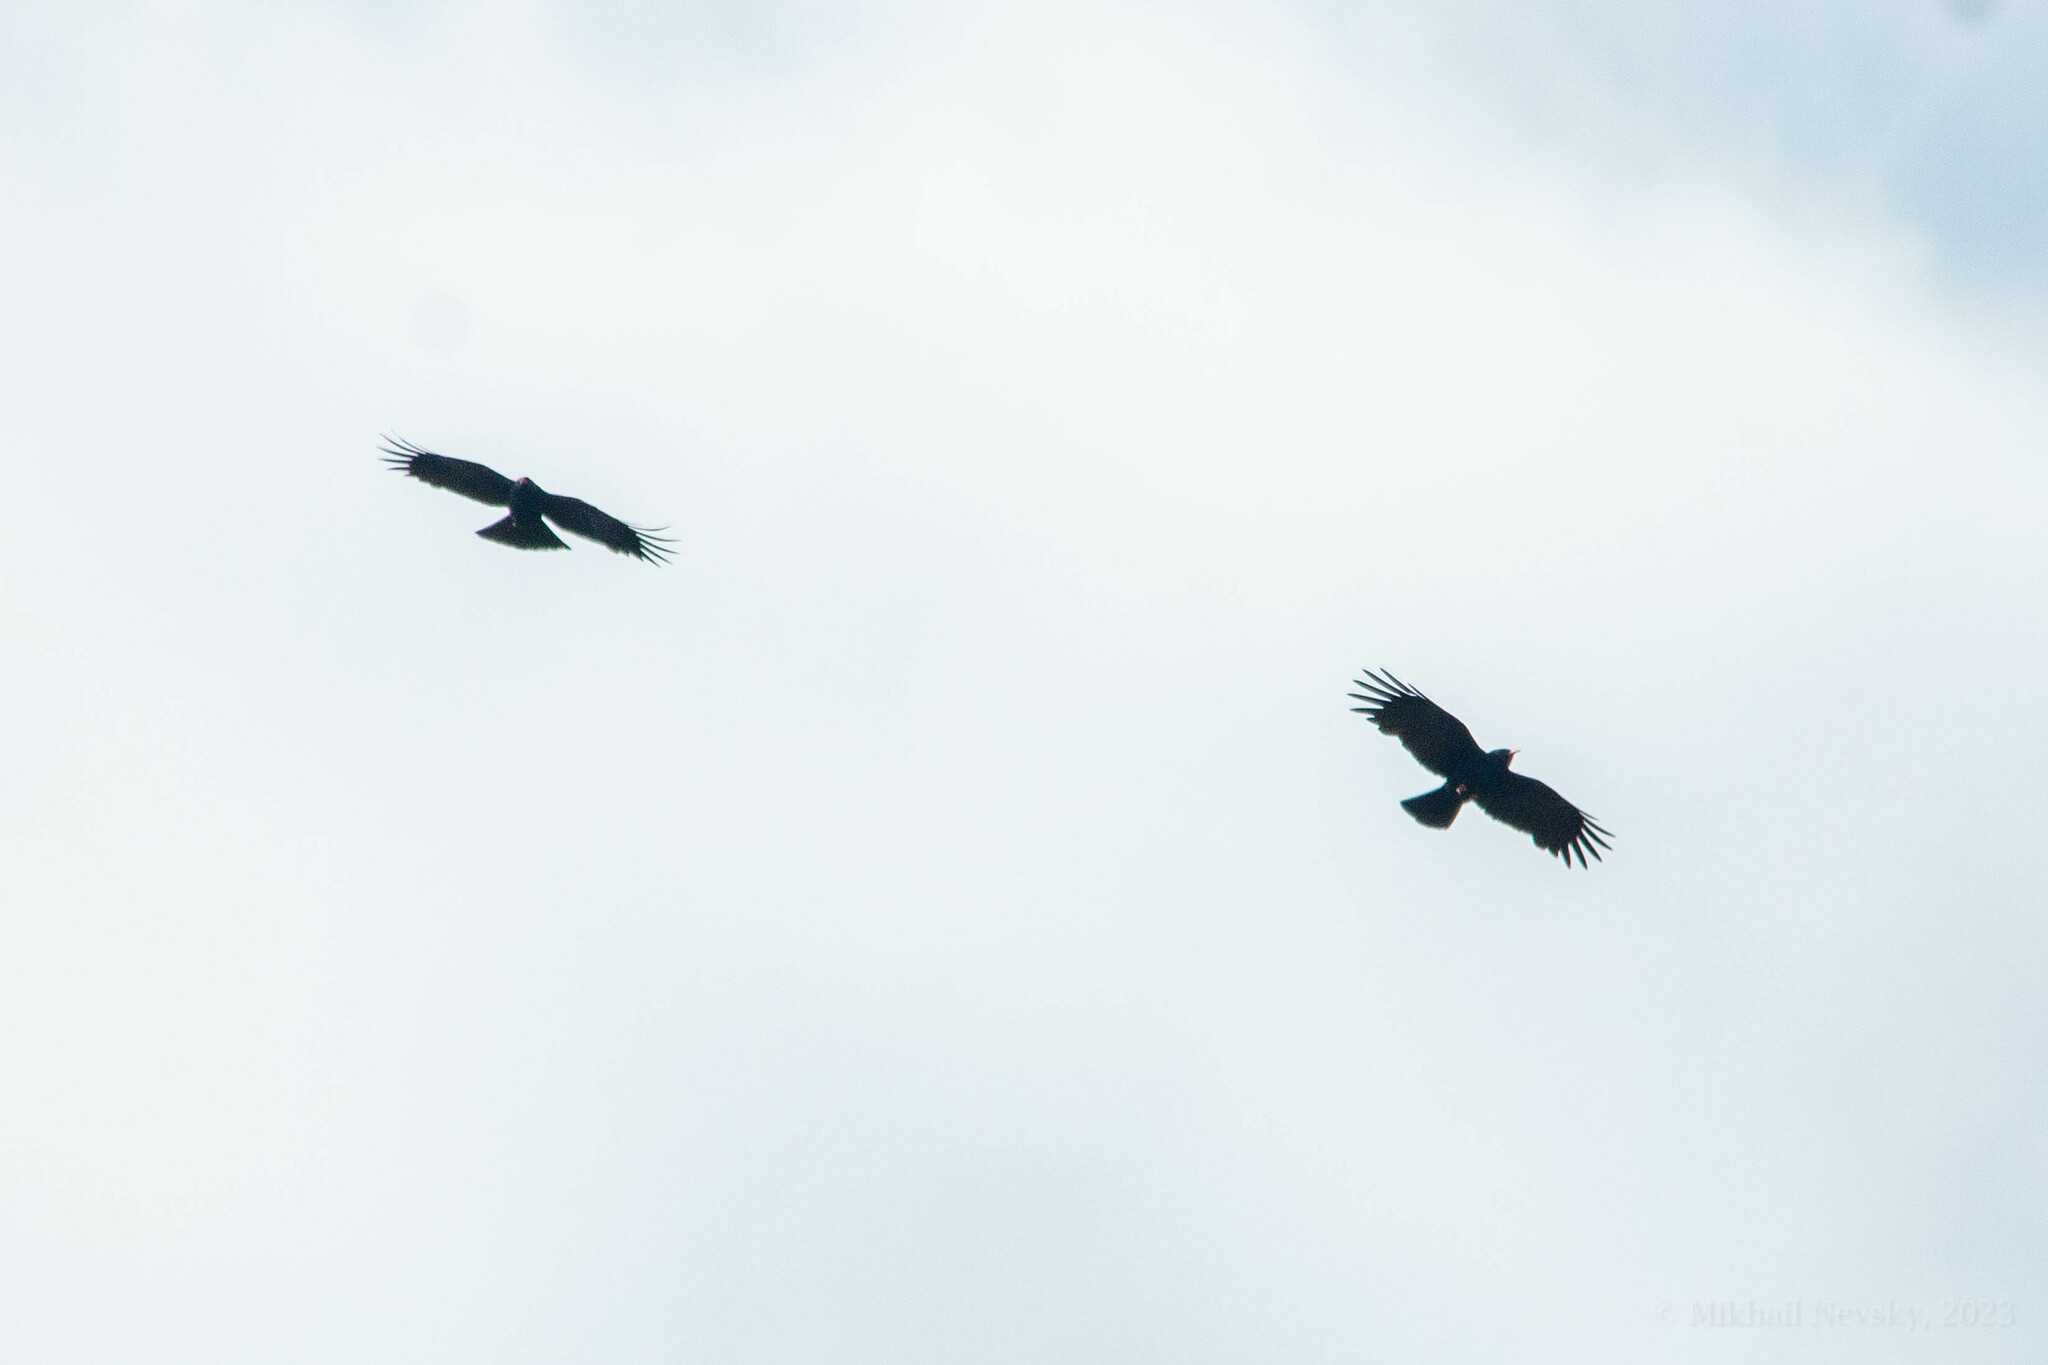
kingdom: Animalia
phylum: Chordata
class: Aves
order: Passeriformes
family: Corvidae
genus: Pyrrhocorax
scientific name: Pyrrhocorax pyrrhocorax
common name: Red-billed chough
